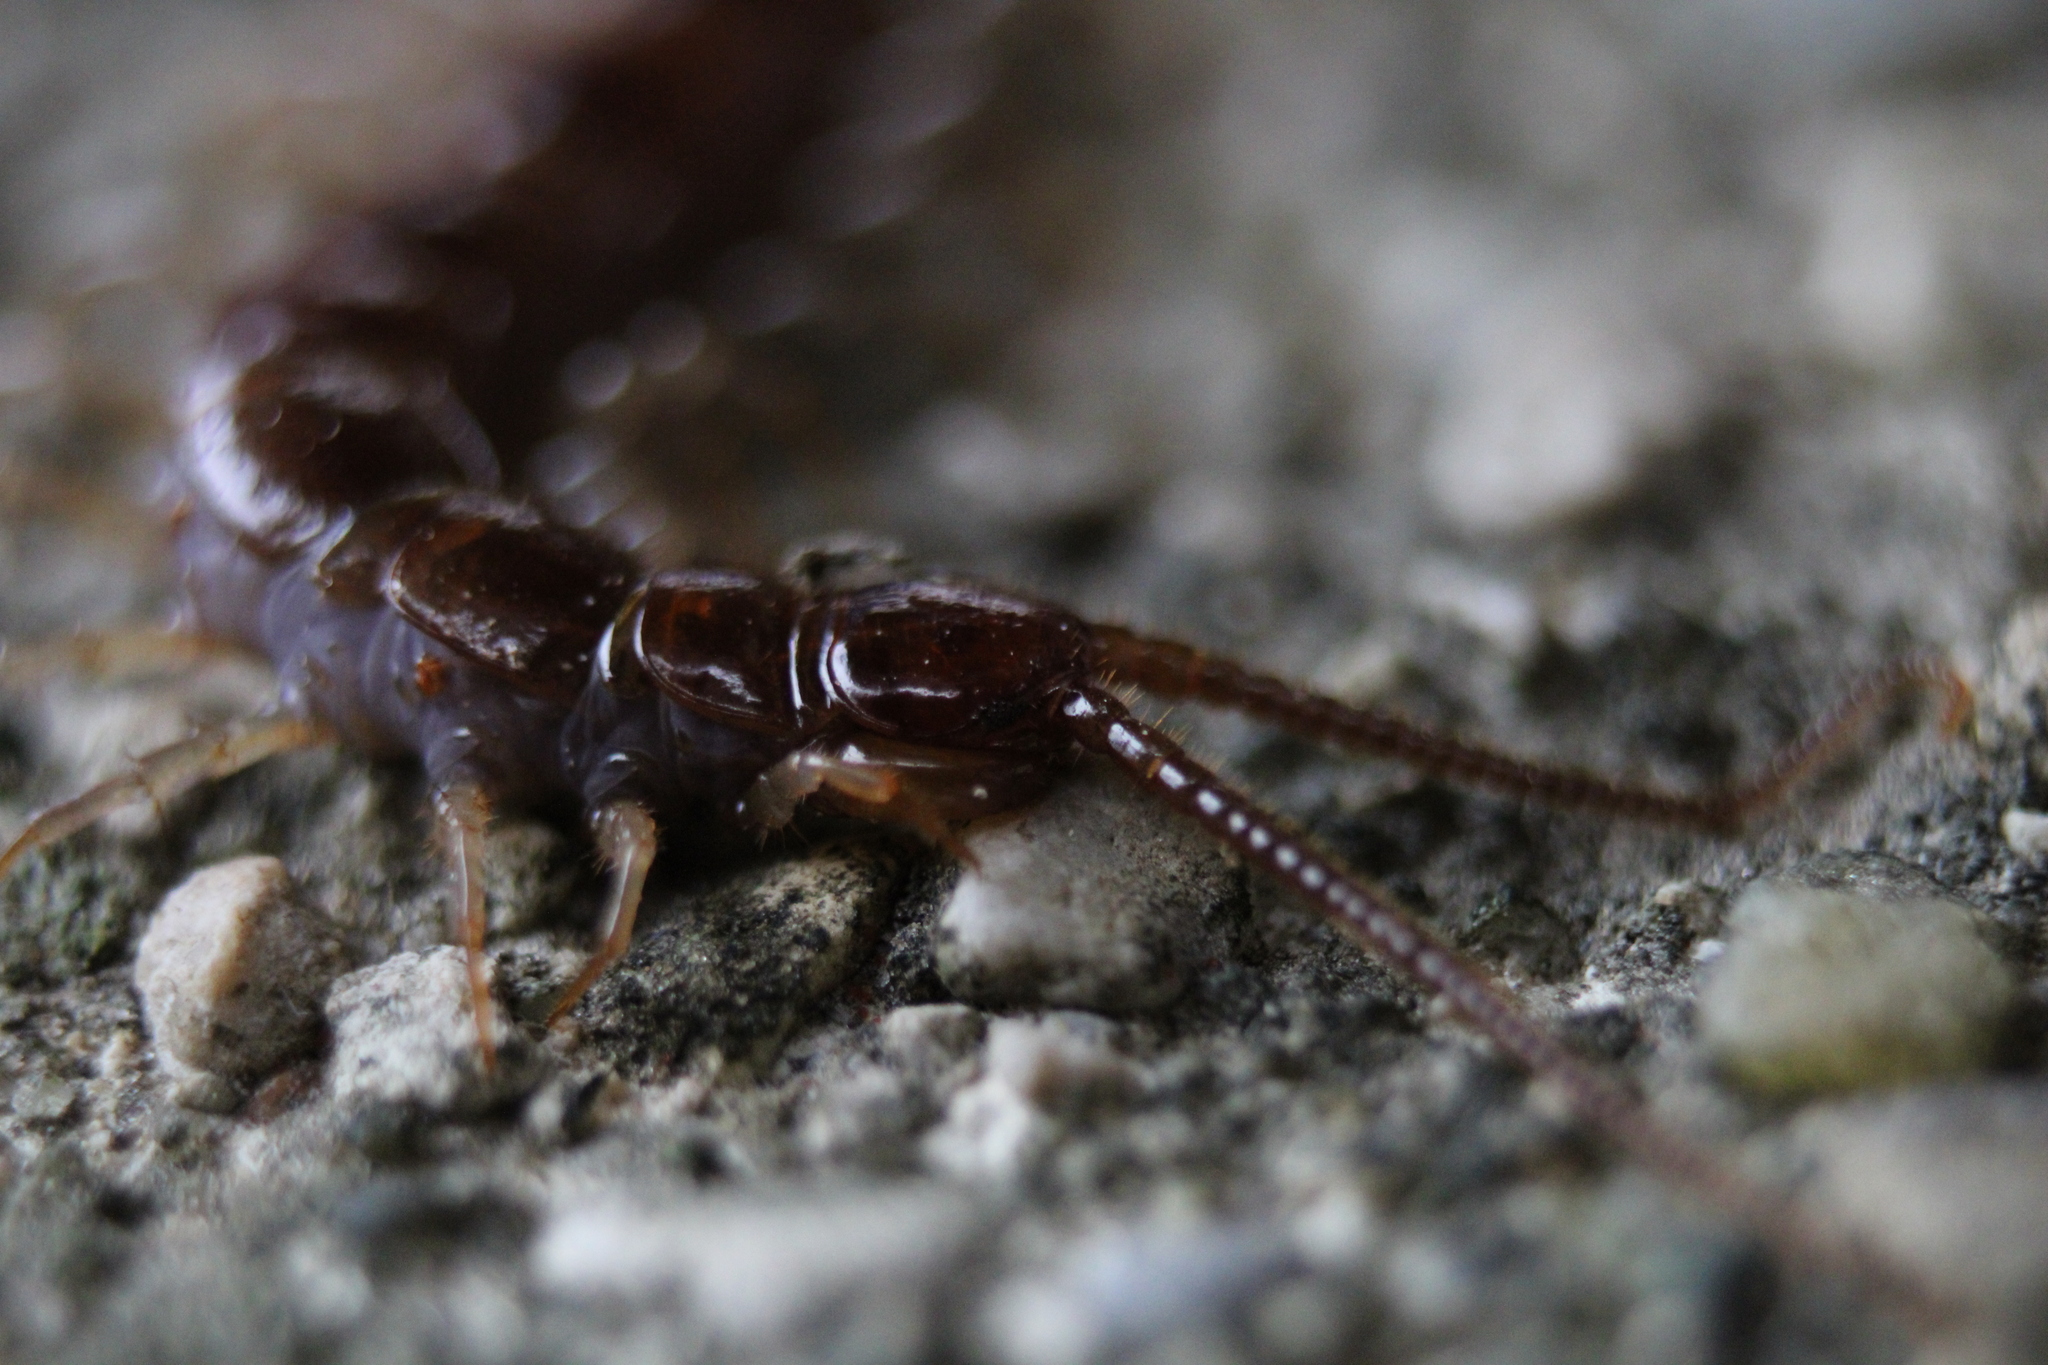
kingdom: Animalia
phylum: Arthropoda
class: Chilopoda
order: Lithobiomorpha
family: Lithobiidae
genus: Lithobius
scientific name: Lithobius forficatus
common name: Centipede
